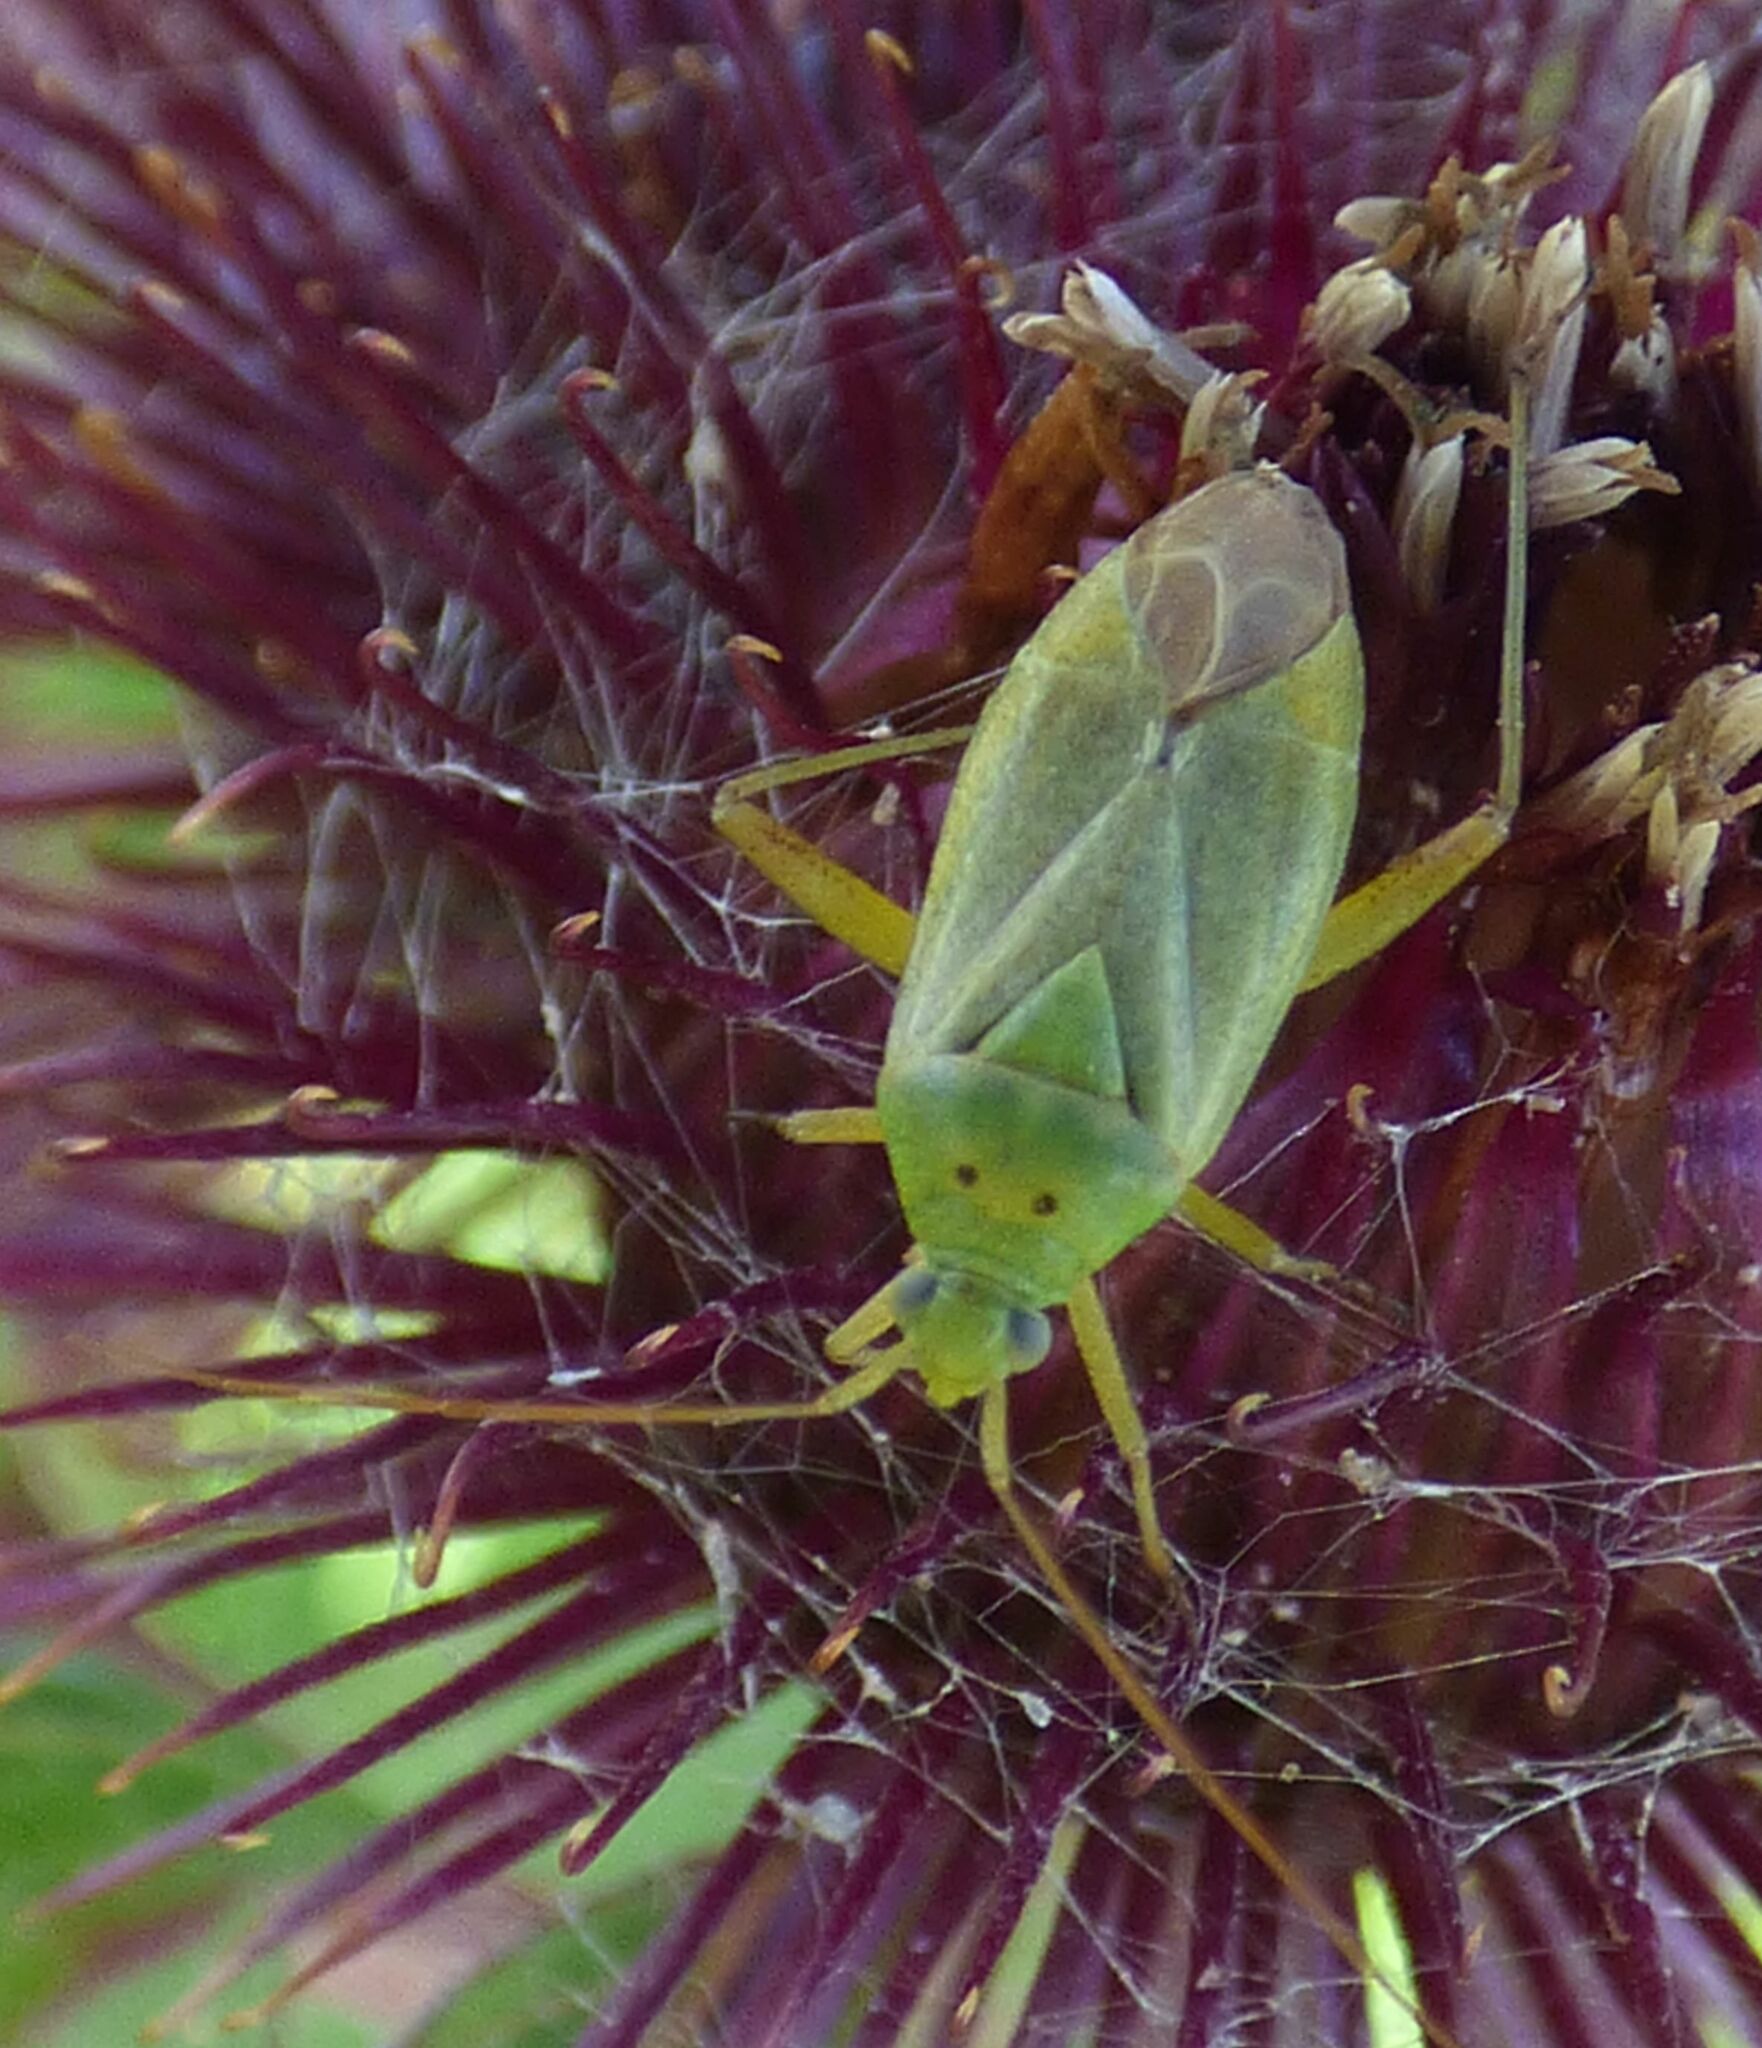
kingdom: Animalia
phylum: Arthropoda
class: Insecta
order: Hemiptera
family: Miridae
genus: Closterotomus
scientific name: Closterotomus norvegicus
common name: Plant bug
